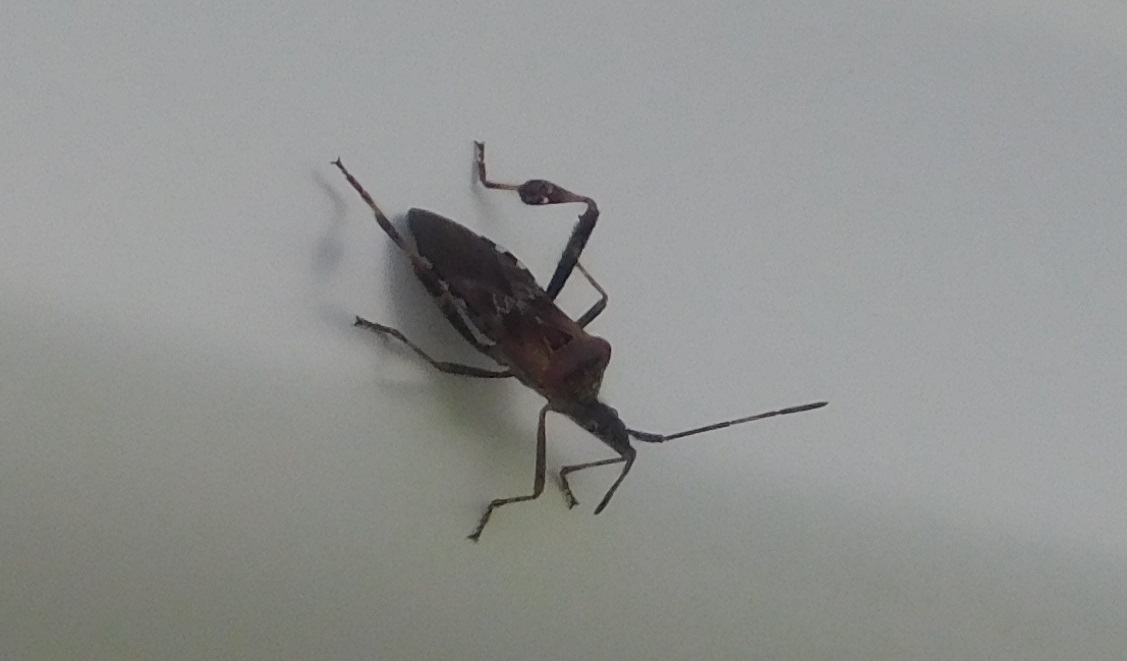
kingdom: Animalia
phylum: Arthropoda
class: Insecta
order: Hemiptera
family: Coreidae
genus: Leptoglossus
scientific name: Leptoglossus occidentalis
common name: Western conifer-seed bug
